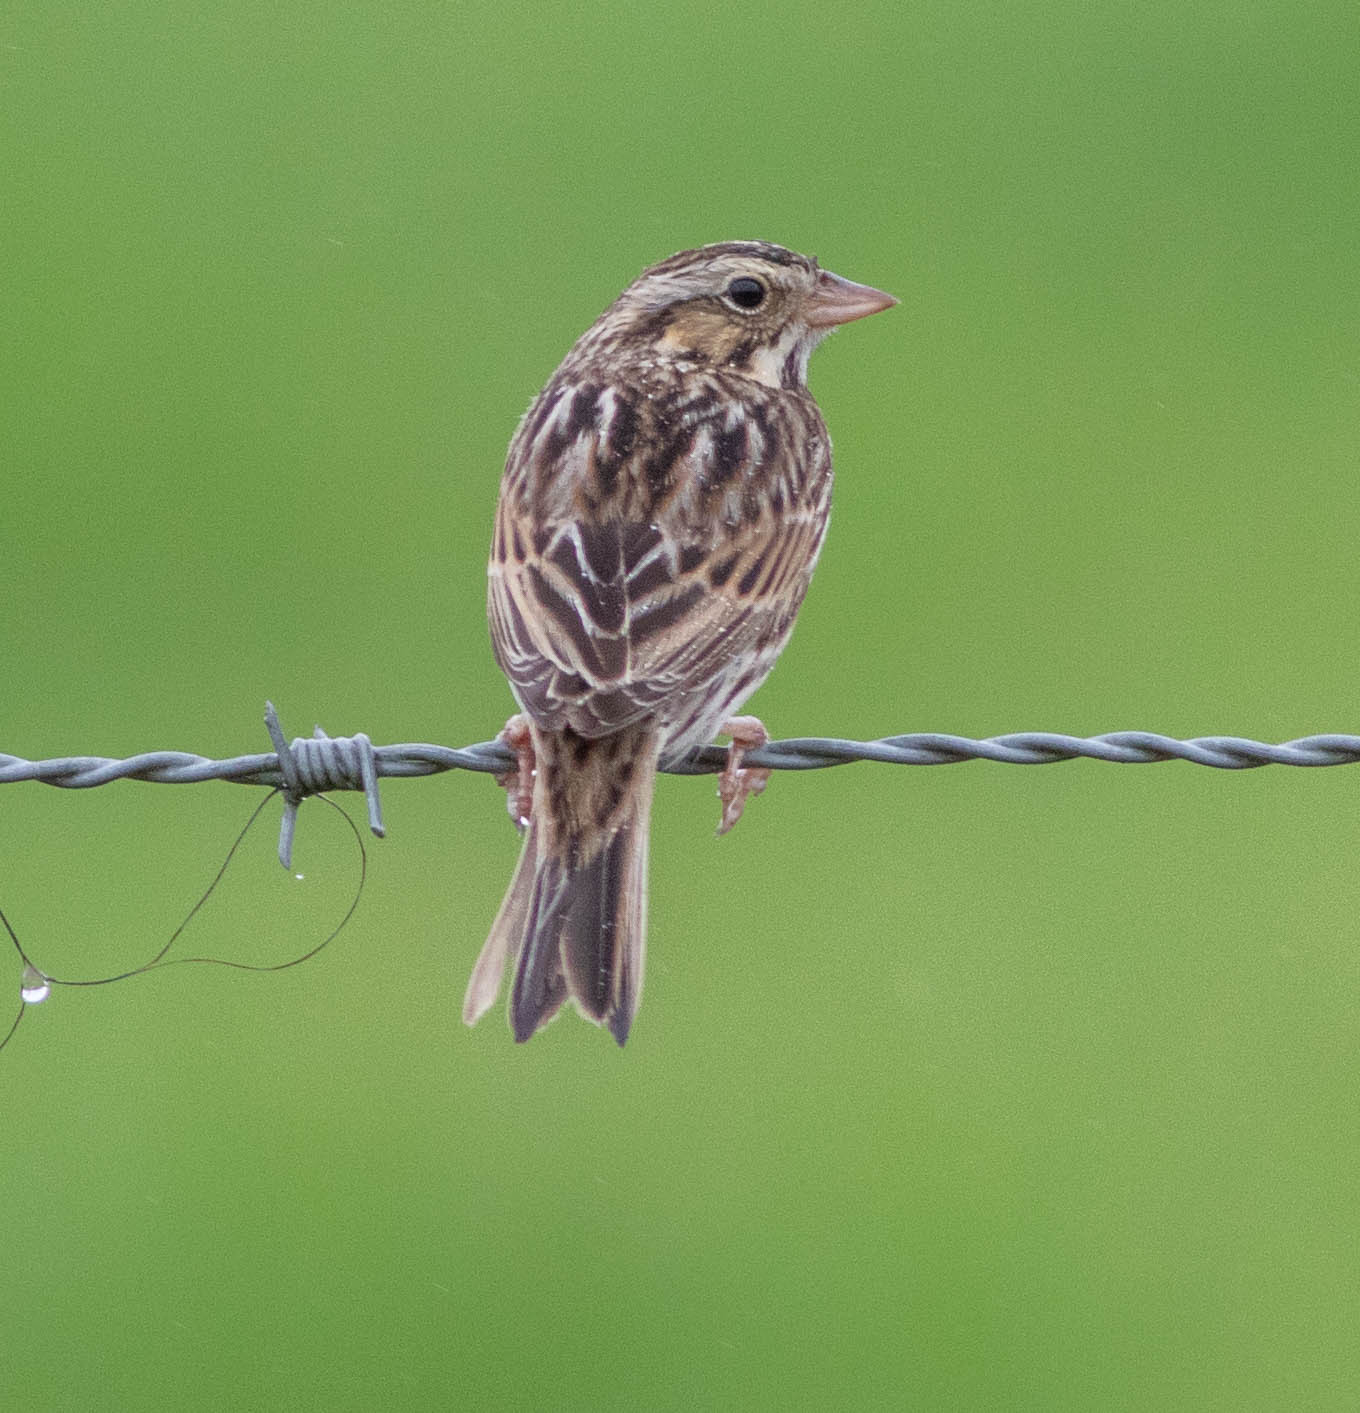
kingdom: Animalia
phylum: Chordata
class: Aves
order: Passeriformes
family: Passerellidae
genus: Passerculus
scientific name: Passerculus sandwichensis
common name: Savannah sparrow
